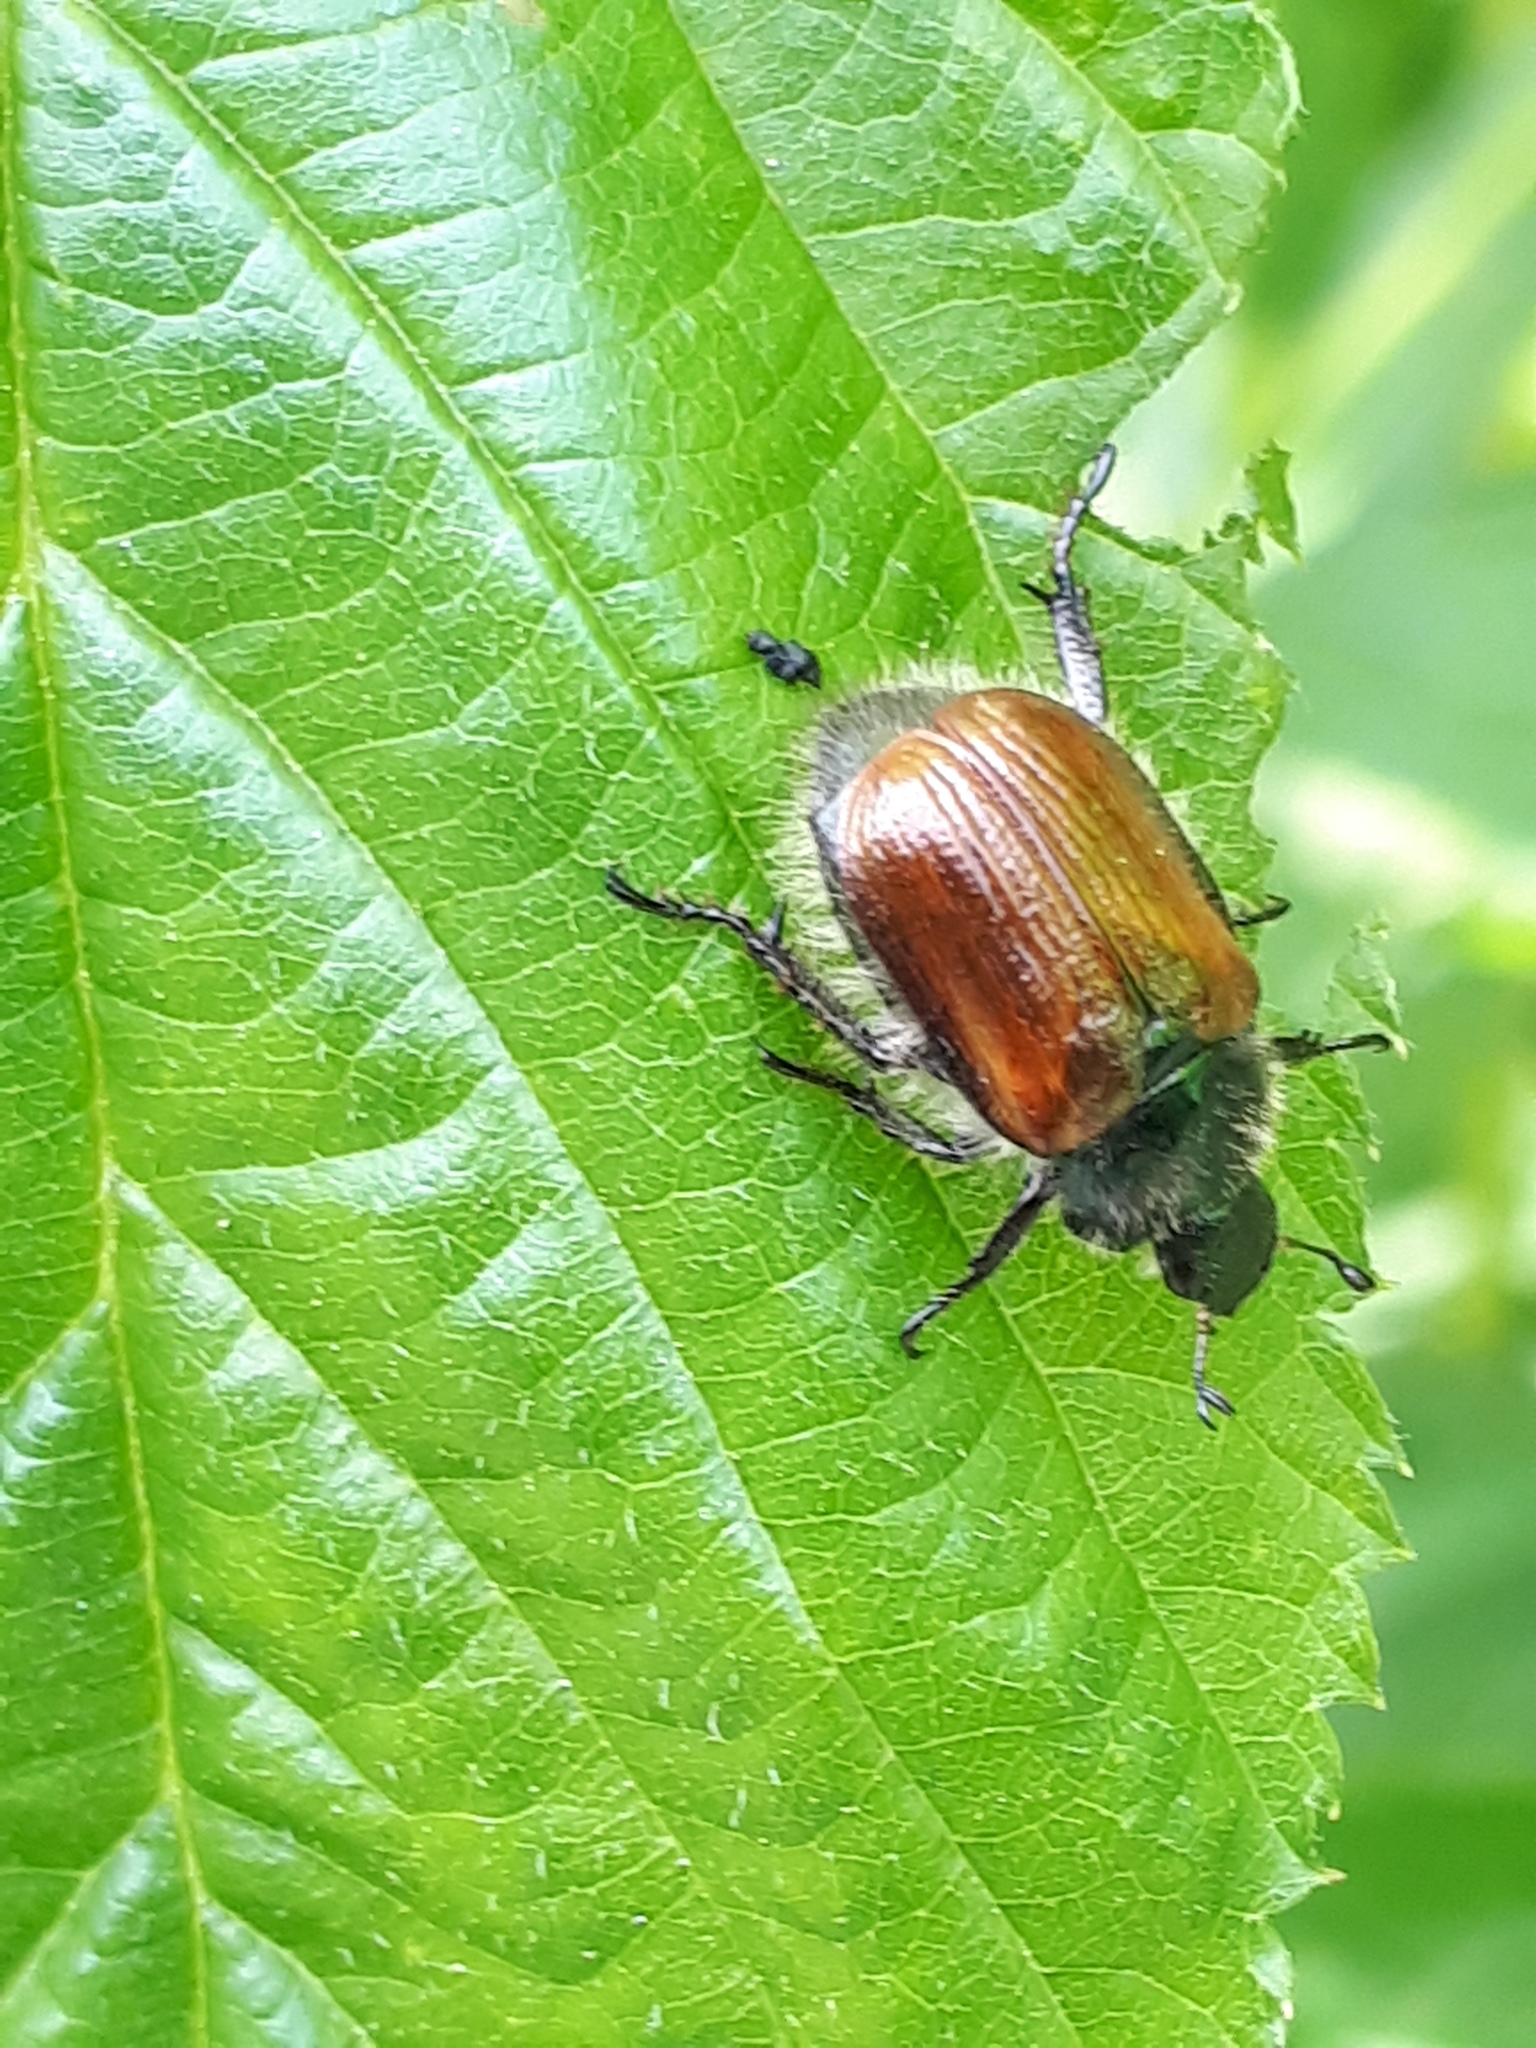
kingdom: Animalia
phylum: Arthropoda
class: Insecta
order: Coleoptera
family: Scarabaeidae
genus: Phyllopertha
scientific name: Phyllopertha horticola
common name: Garden chafer
